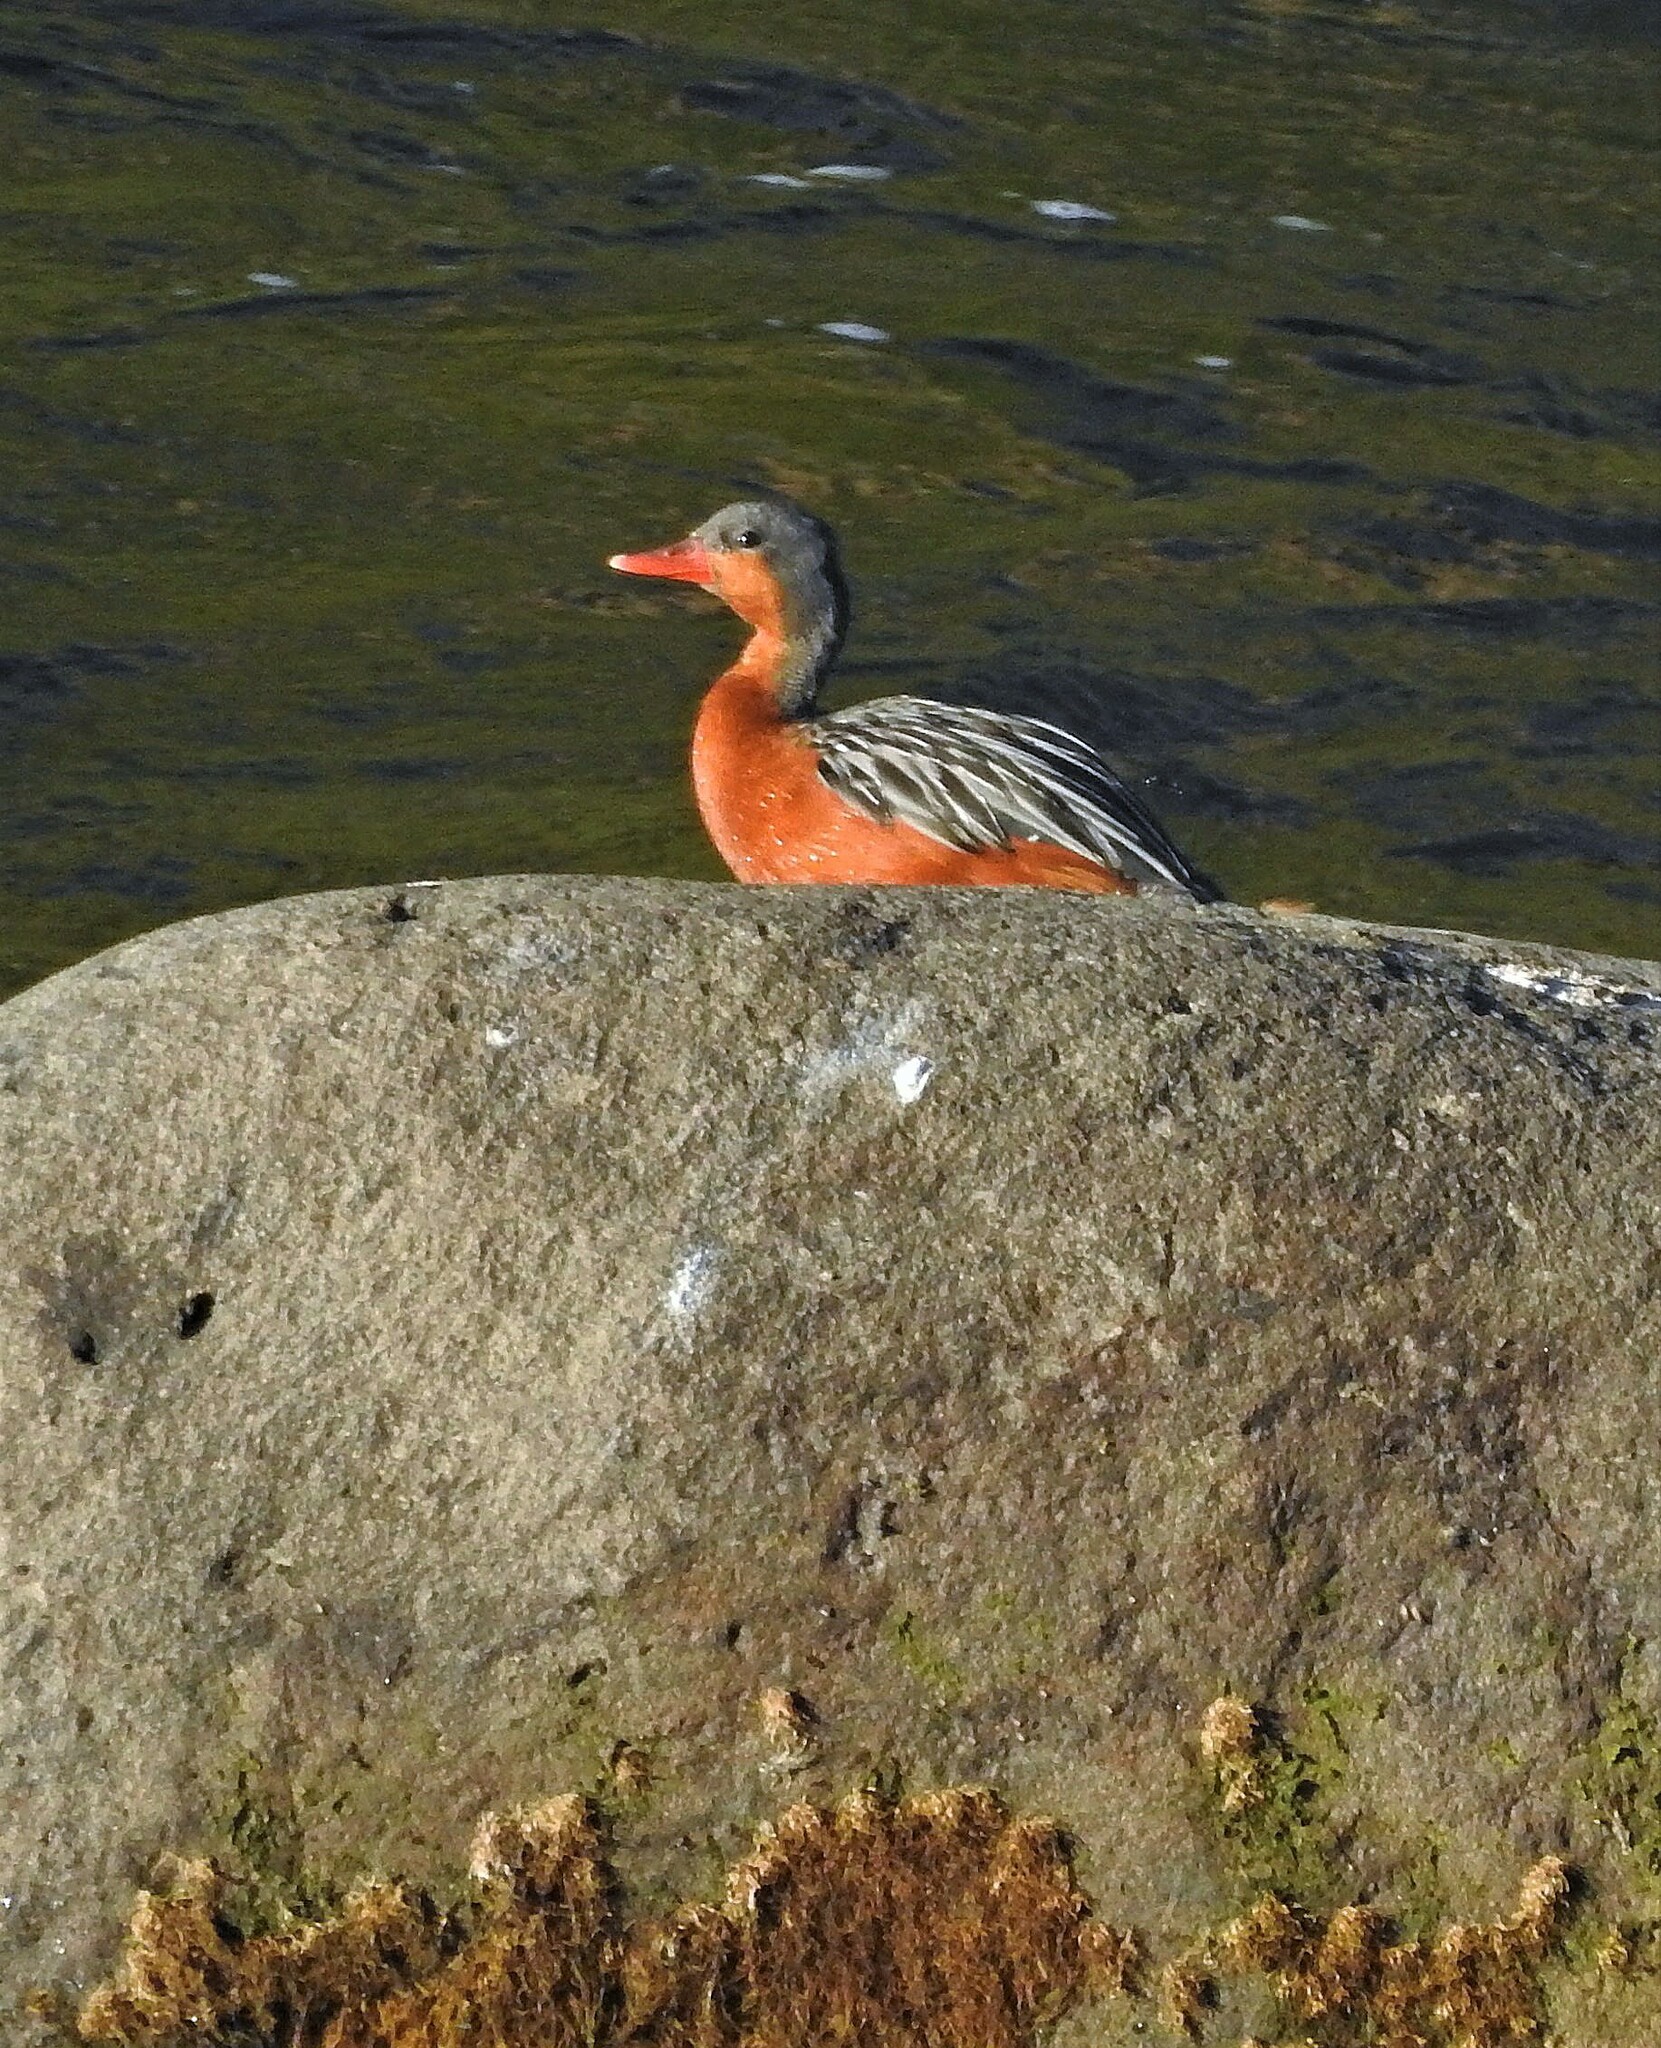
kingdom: Animalia
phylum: Chordata
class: Aves
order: Anseriformes
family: Anatidae
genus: Merganetta
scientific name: Merganetta armata
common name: Torrent duck
